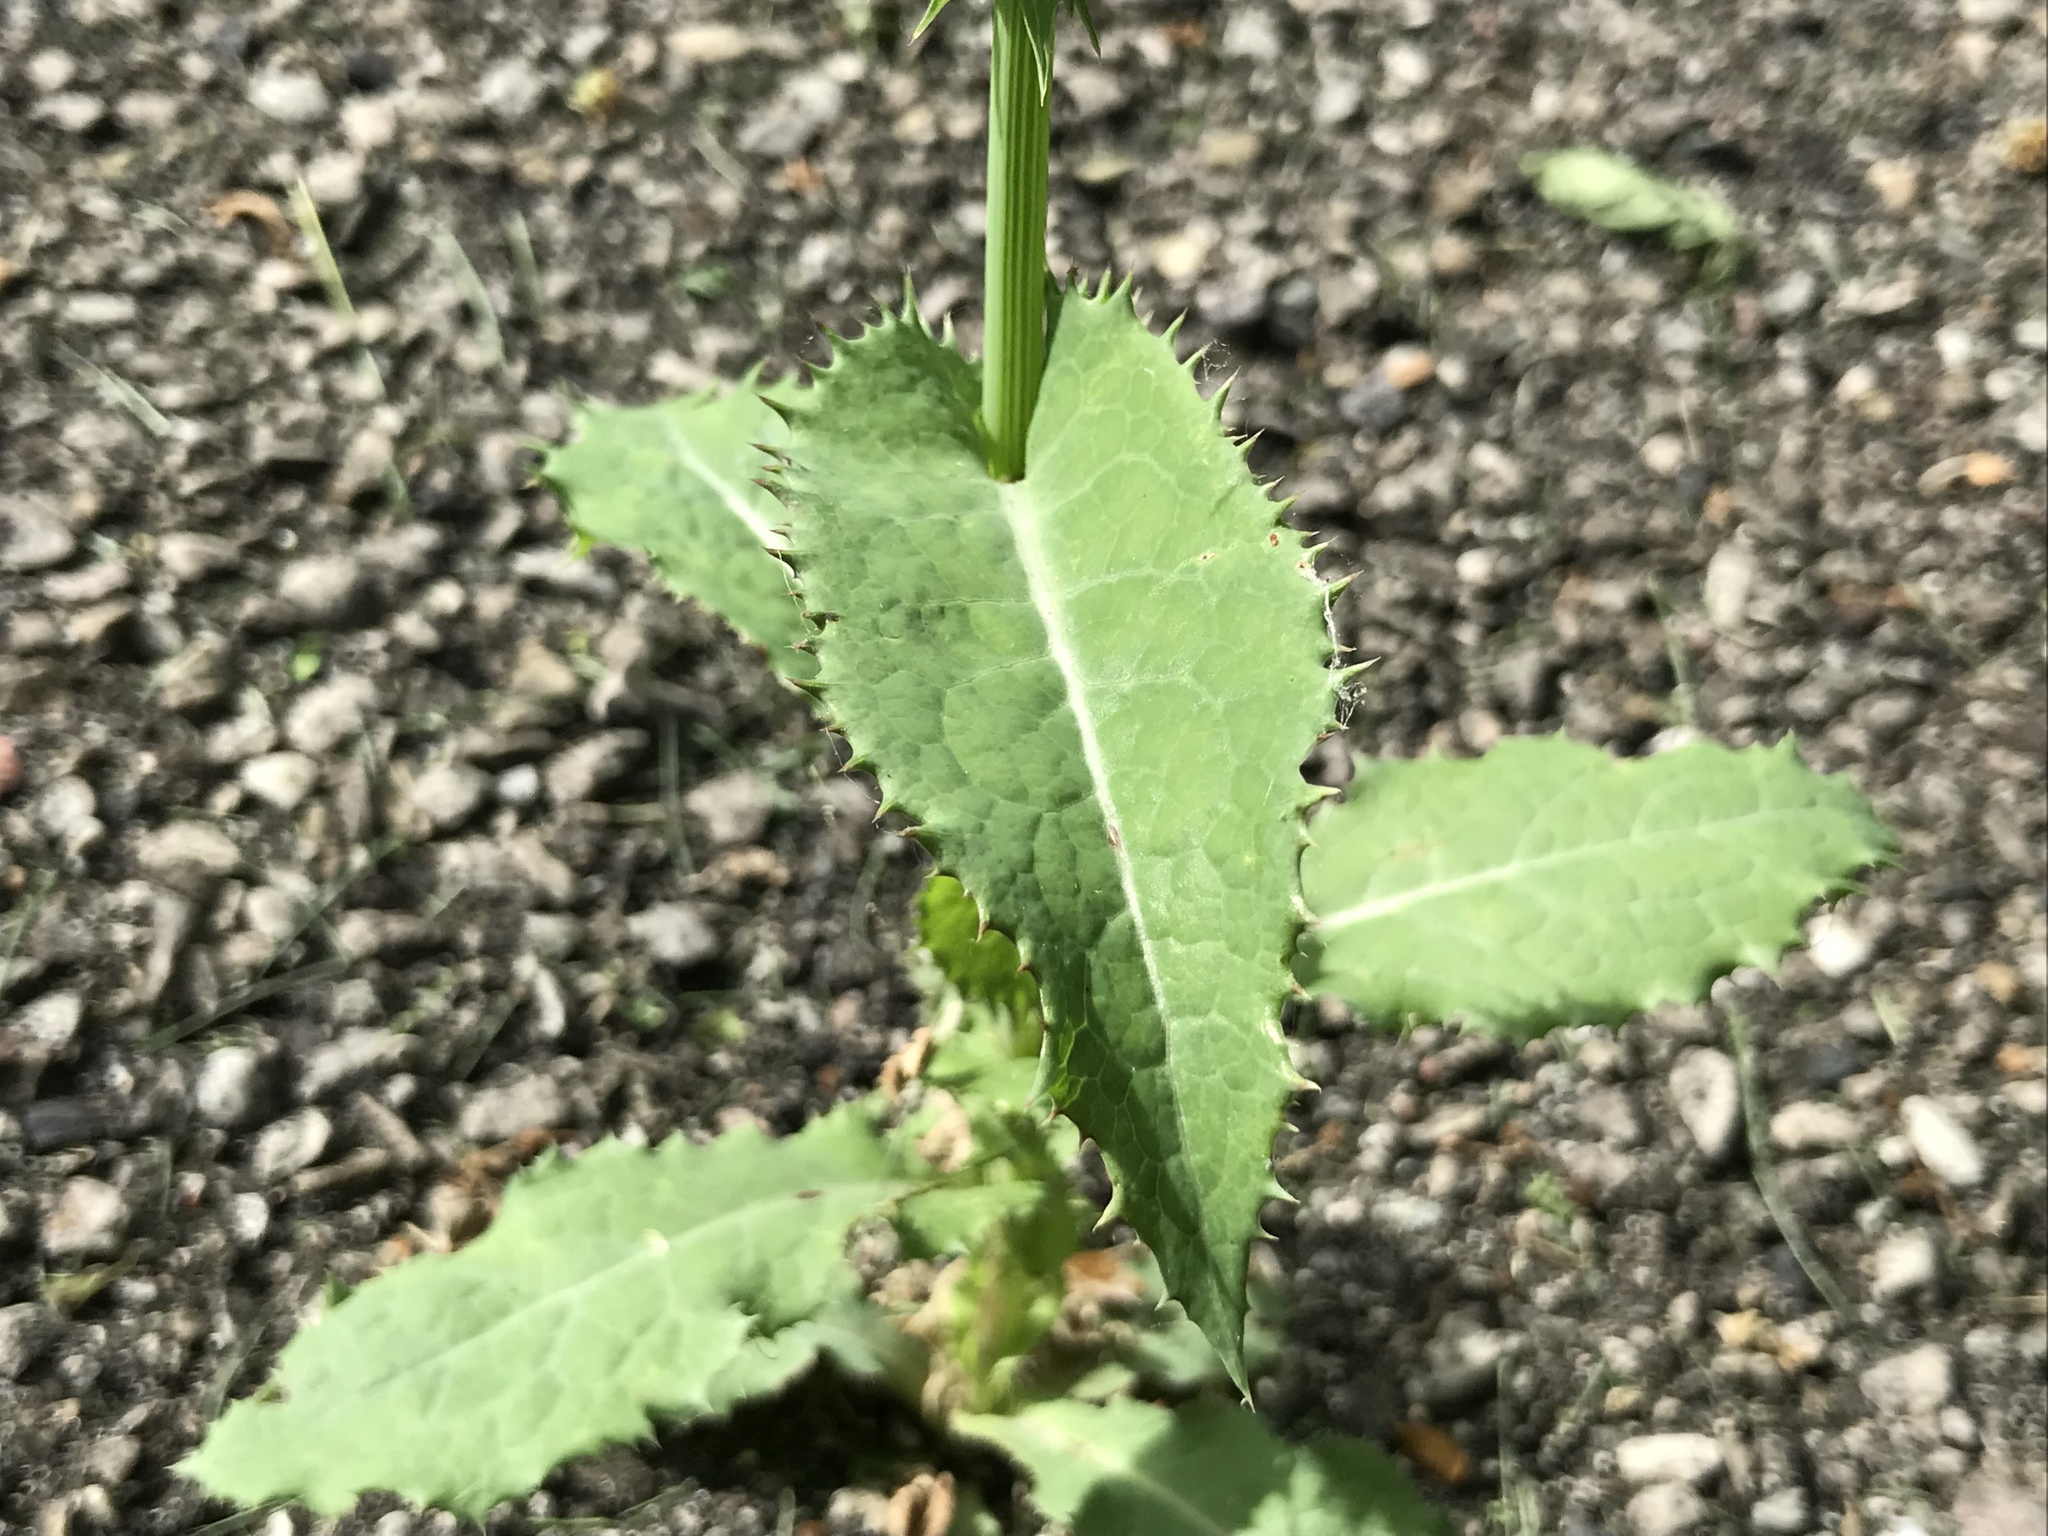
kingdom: Plantae
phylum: Tracheophyta
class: Magnoliopsida
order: Asterales
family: Asteraceae
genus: Sonchus
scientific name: Sonchus asper
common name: Prickly sow-thistle
